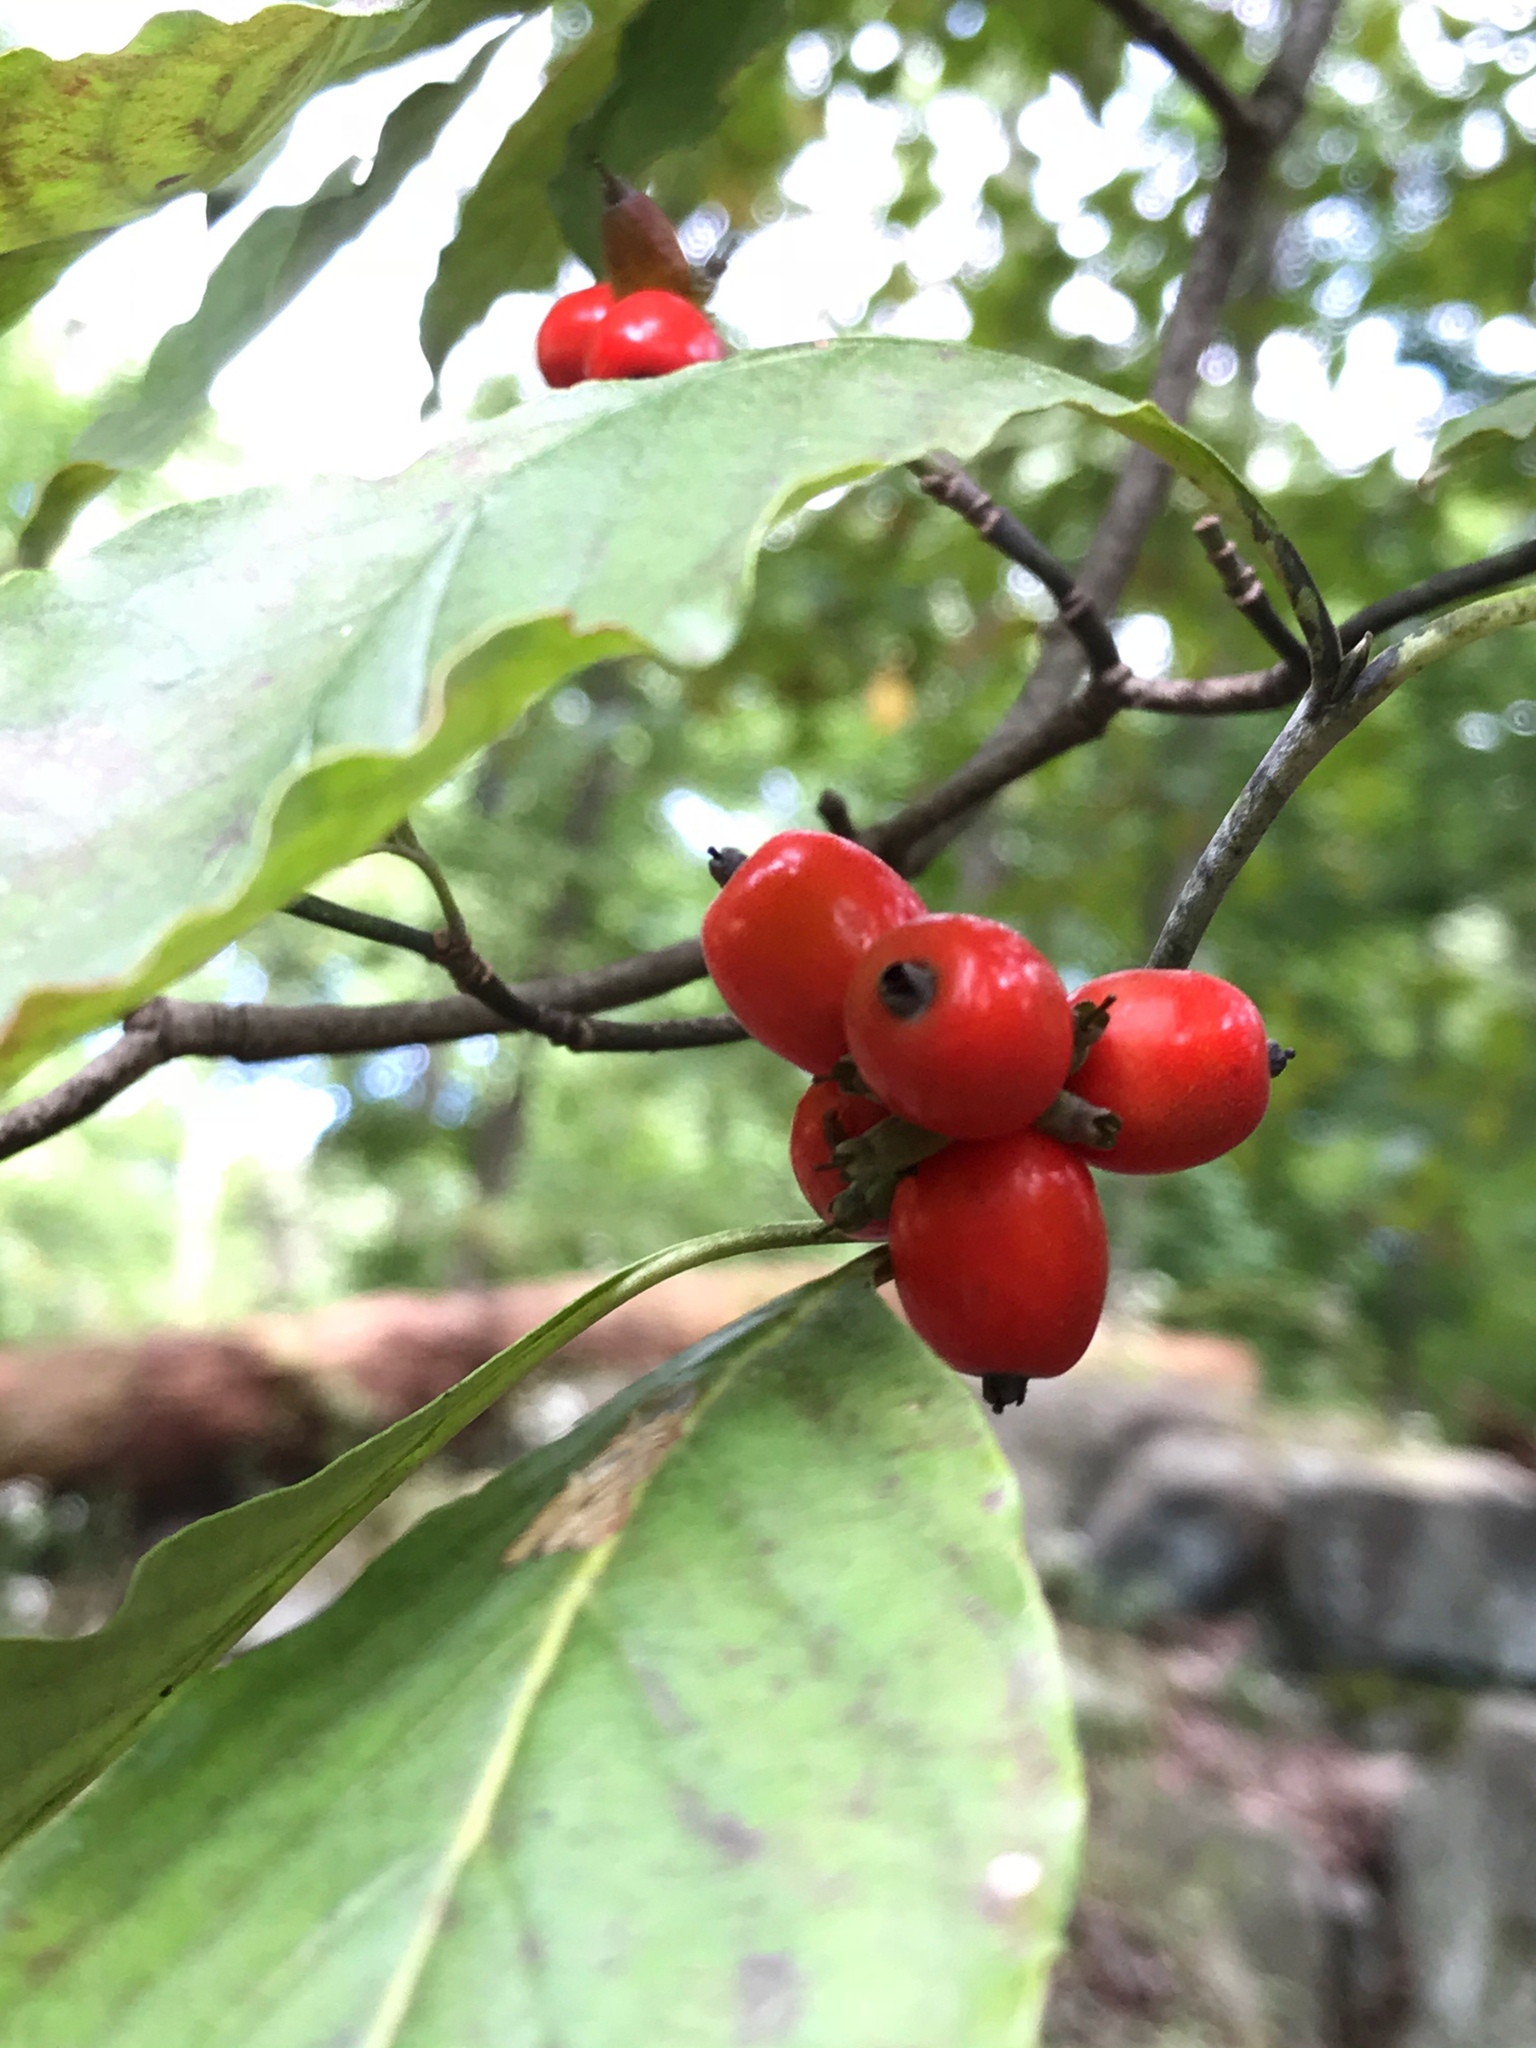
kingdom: Plantae
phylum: Tracheophyta
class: Magnoliopsida
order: Cornales
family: Cornaceae
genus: Cornus
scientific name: Cornus florida
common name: Flowering dogwood
